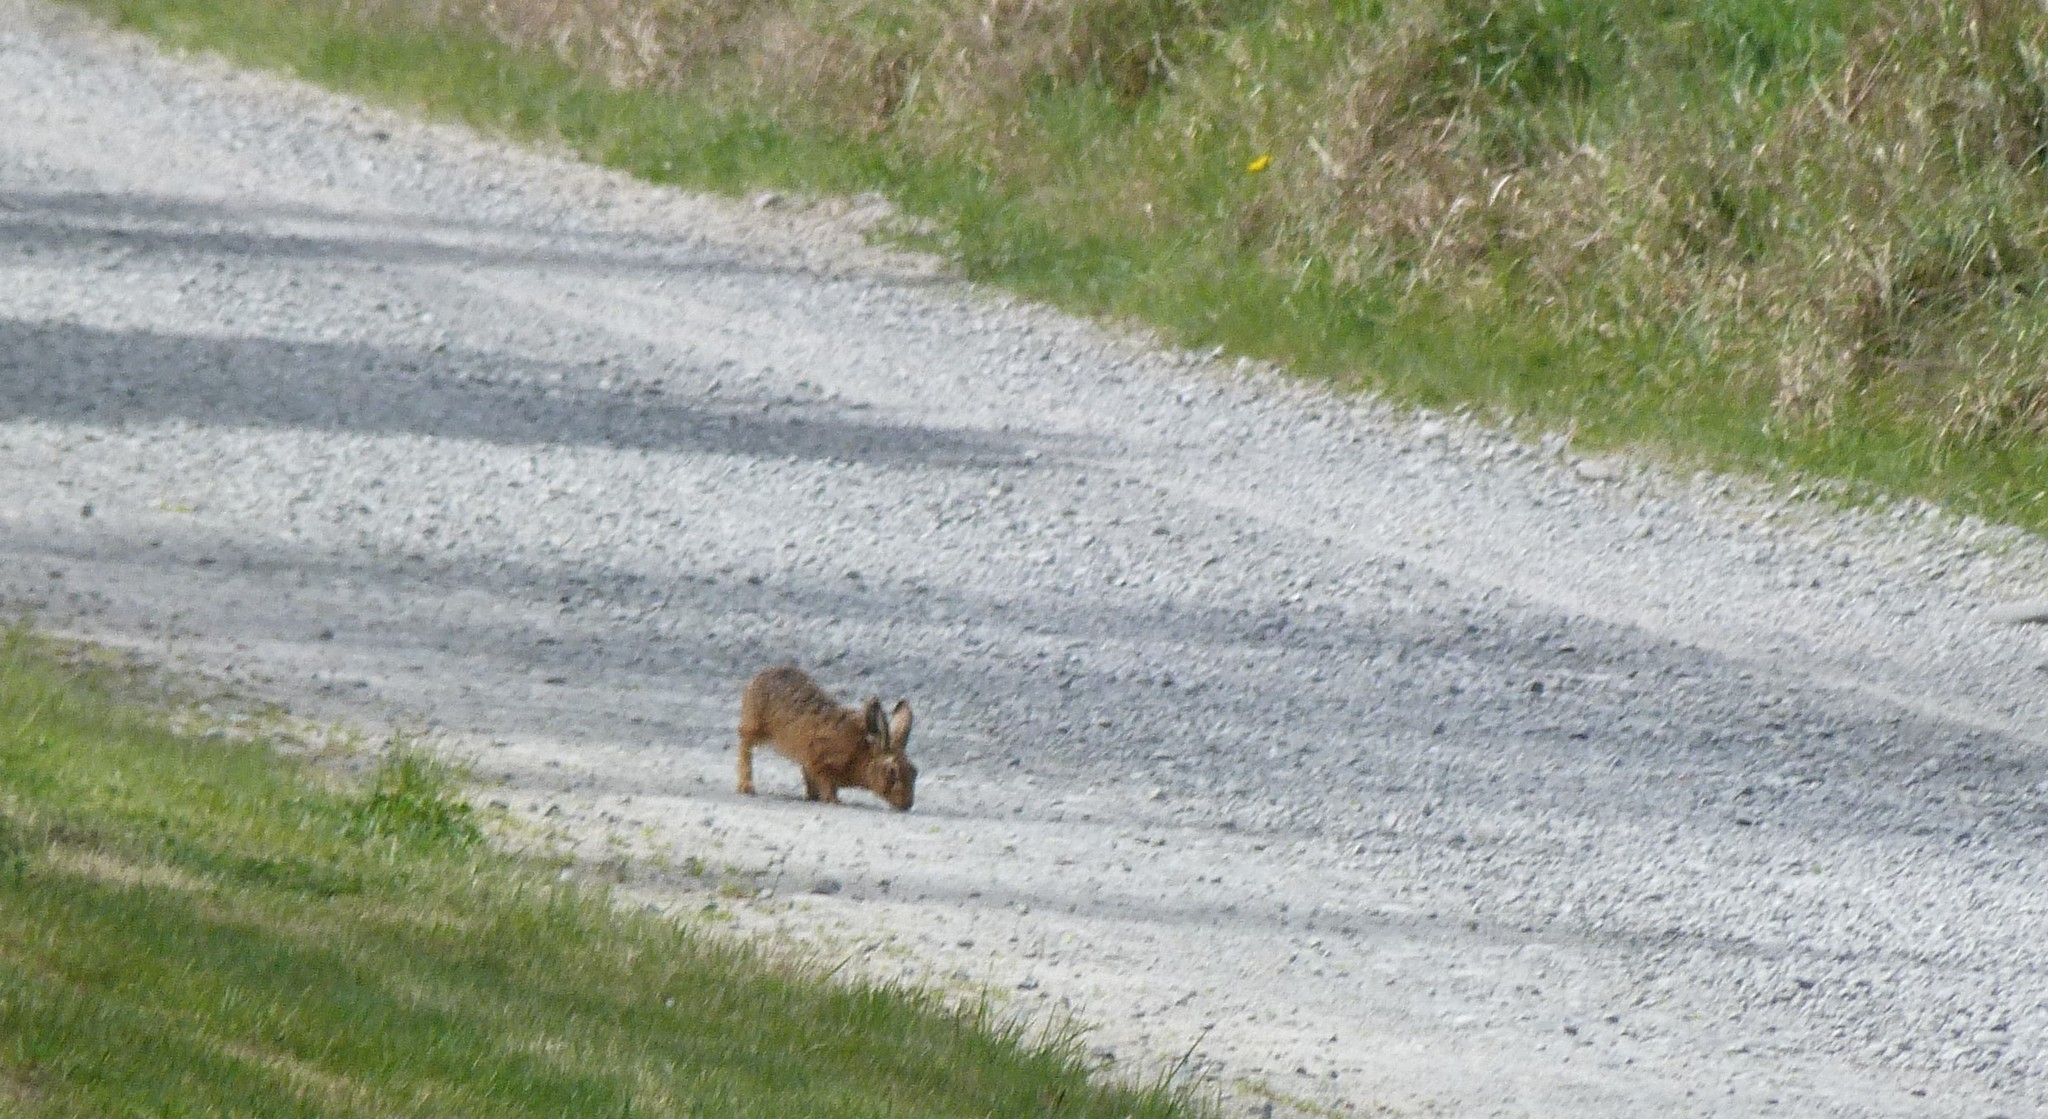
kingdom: Animalia
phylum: Chordata
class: Mammalia
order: Lagomorpha
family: Leporidae
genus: Lepus
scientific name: Lepus europaeus
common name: European hare
